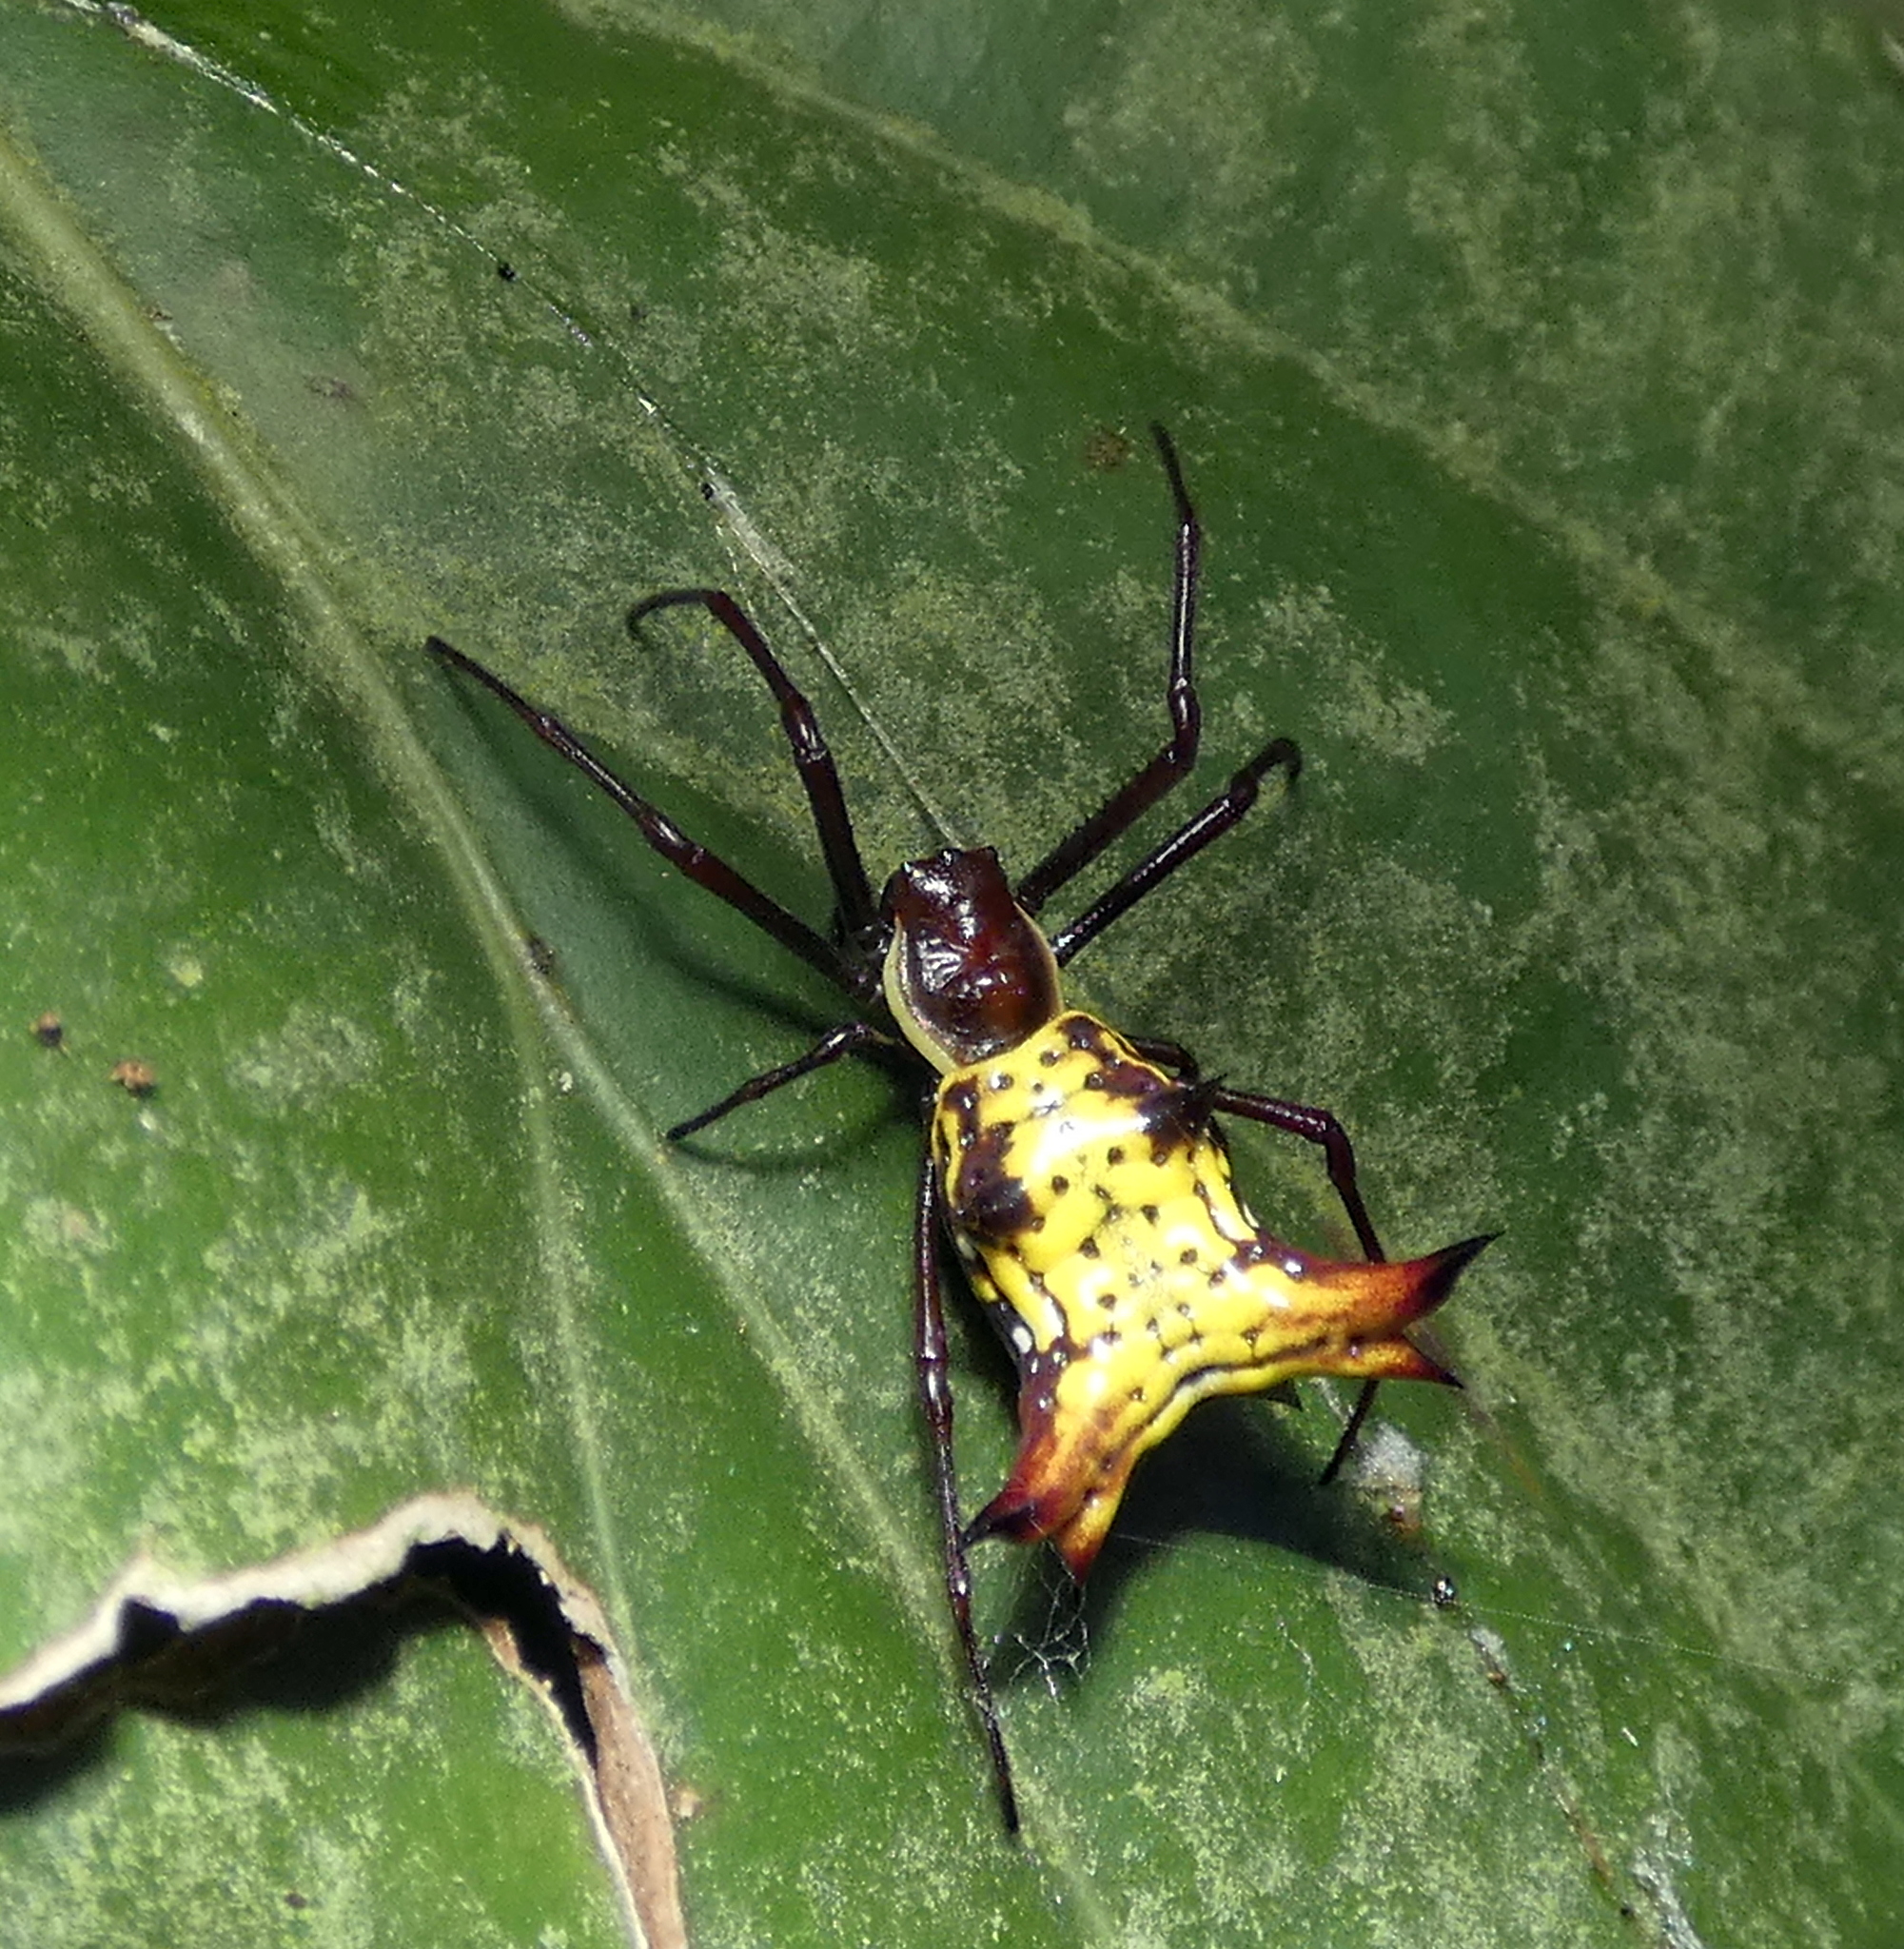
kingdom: Animalia
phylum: Arthropoda
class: Arachnida
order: Araneae
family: Araneidae
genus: Micrathena
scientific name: Micrathena fissispina
